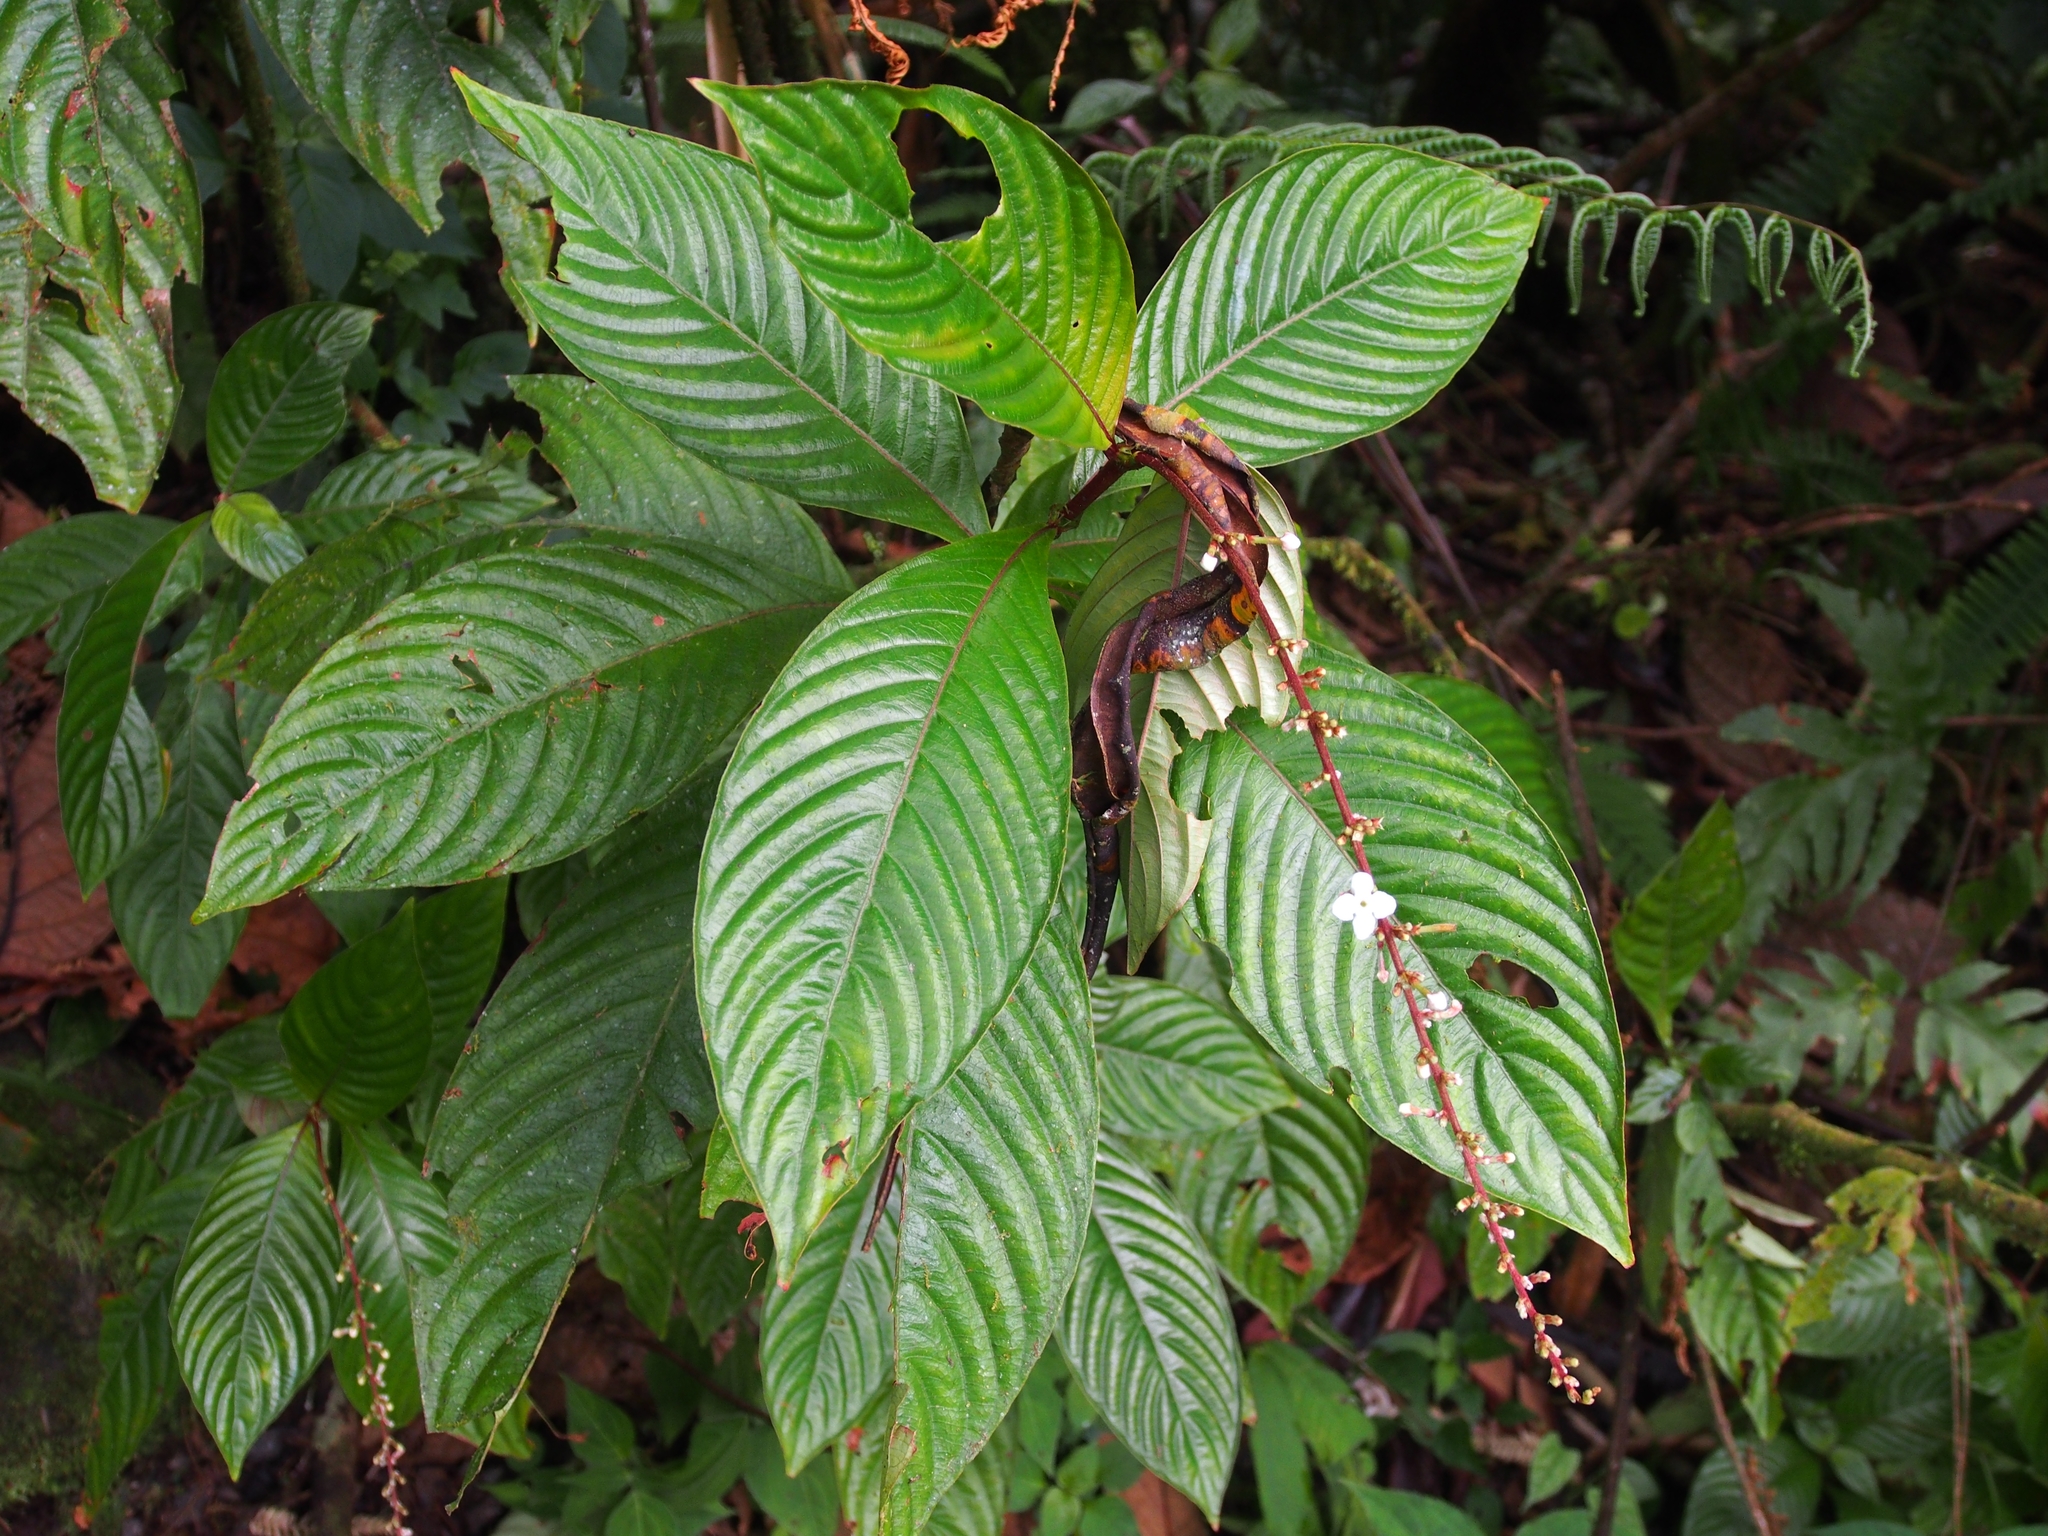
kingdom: Plantae
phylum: Tracheophyta
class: Magnoliopsida
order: Gentianales
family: Rubiaceae
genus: Gonzalagunia
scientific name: Gonzalagunia stenostachya
